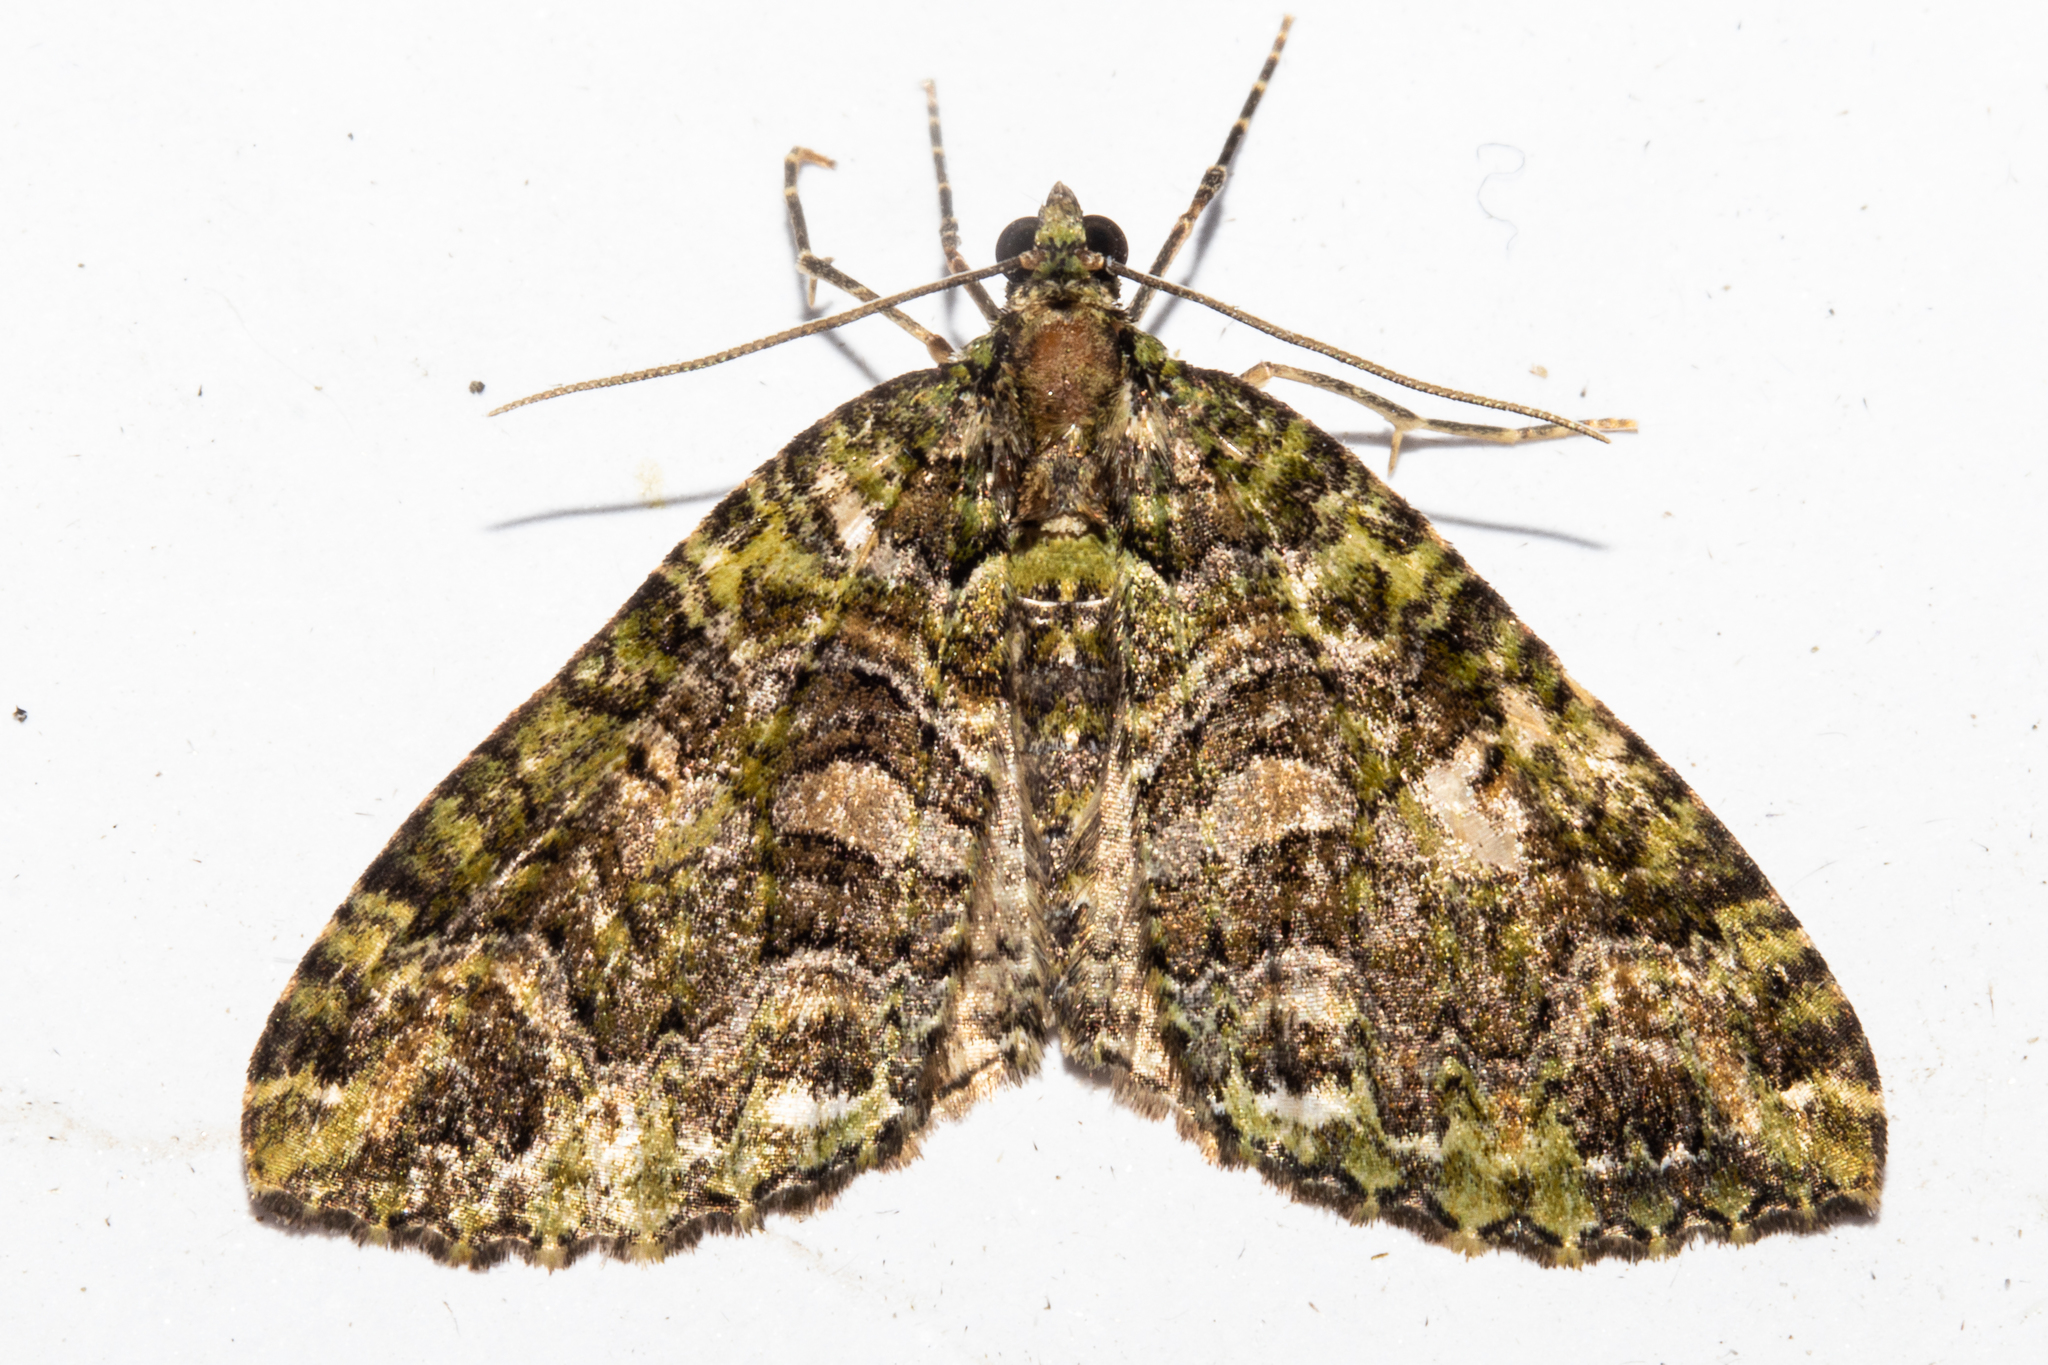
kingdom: Animalia
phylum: Arthropoda
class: Insecta
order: Lepidoptera
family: Geometridae
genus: Austrocidaria
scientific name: Austrocidaria similata
